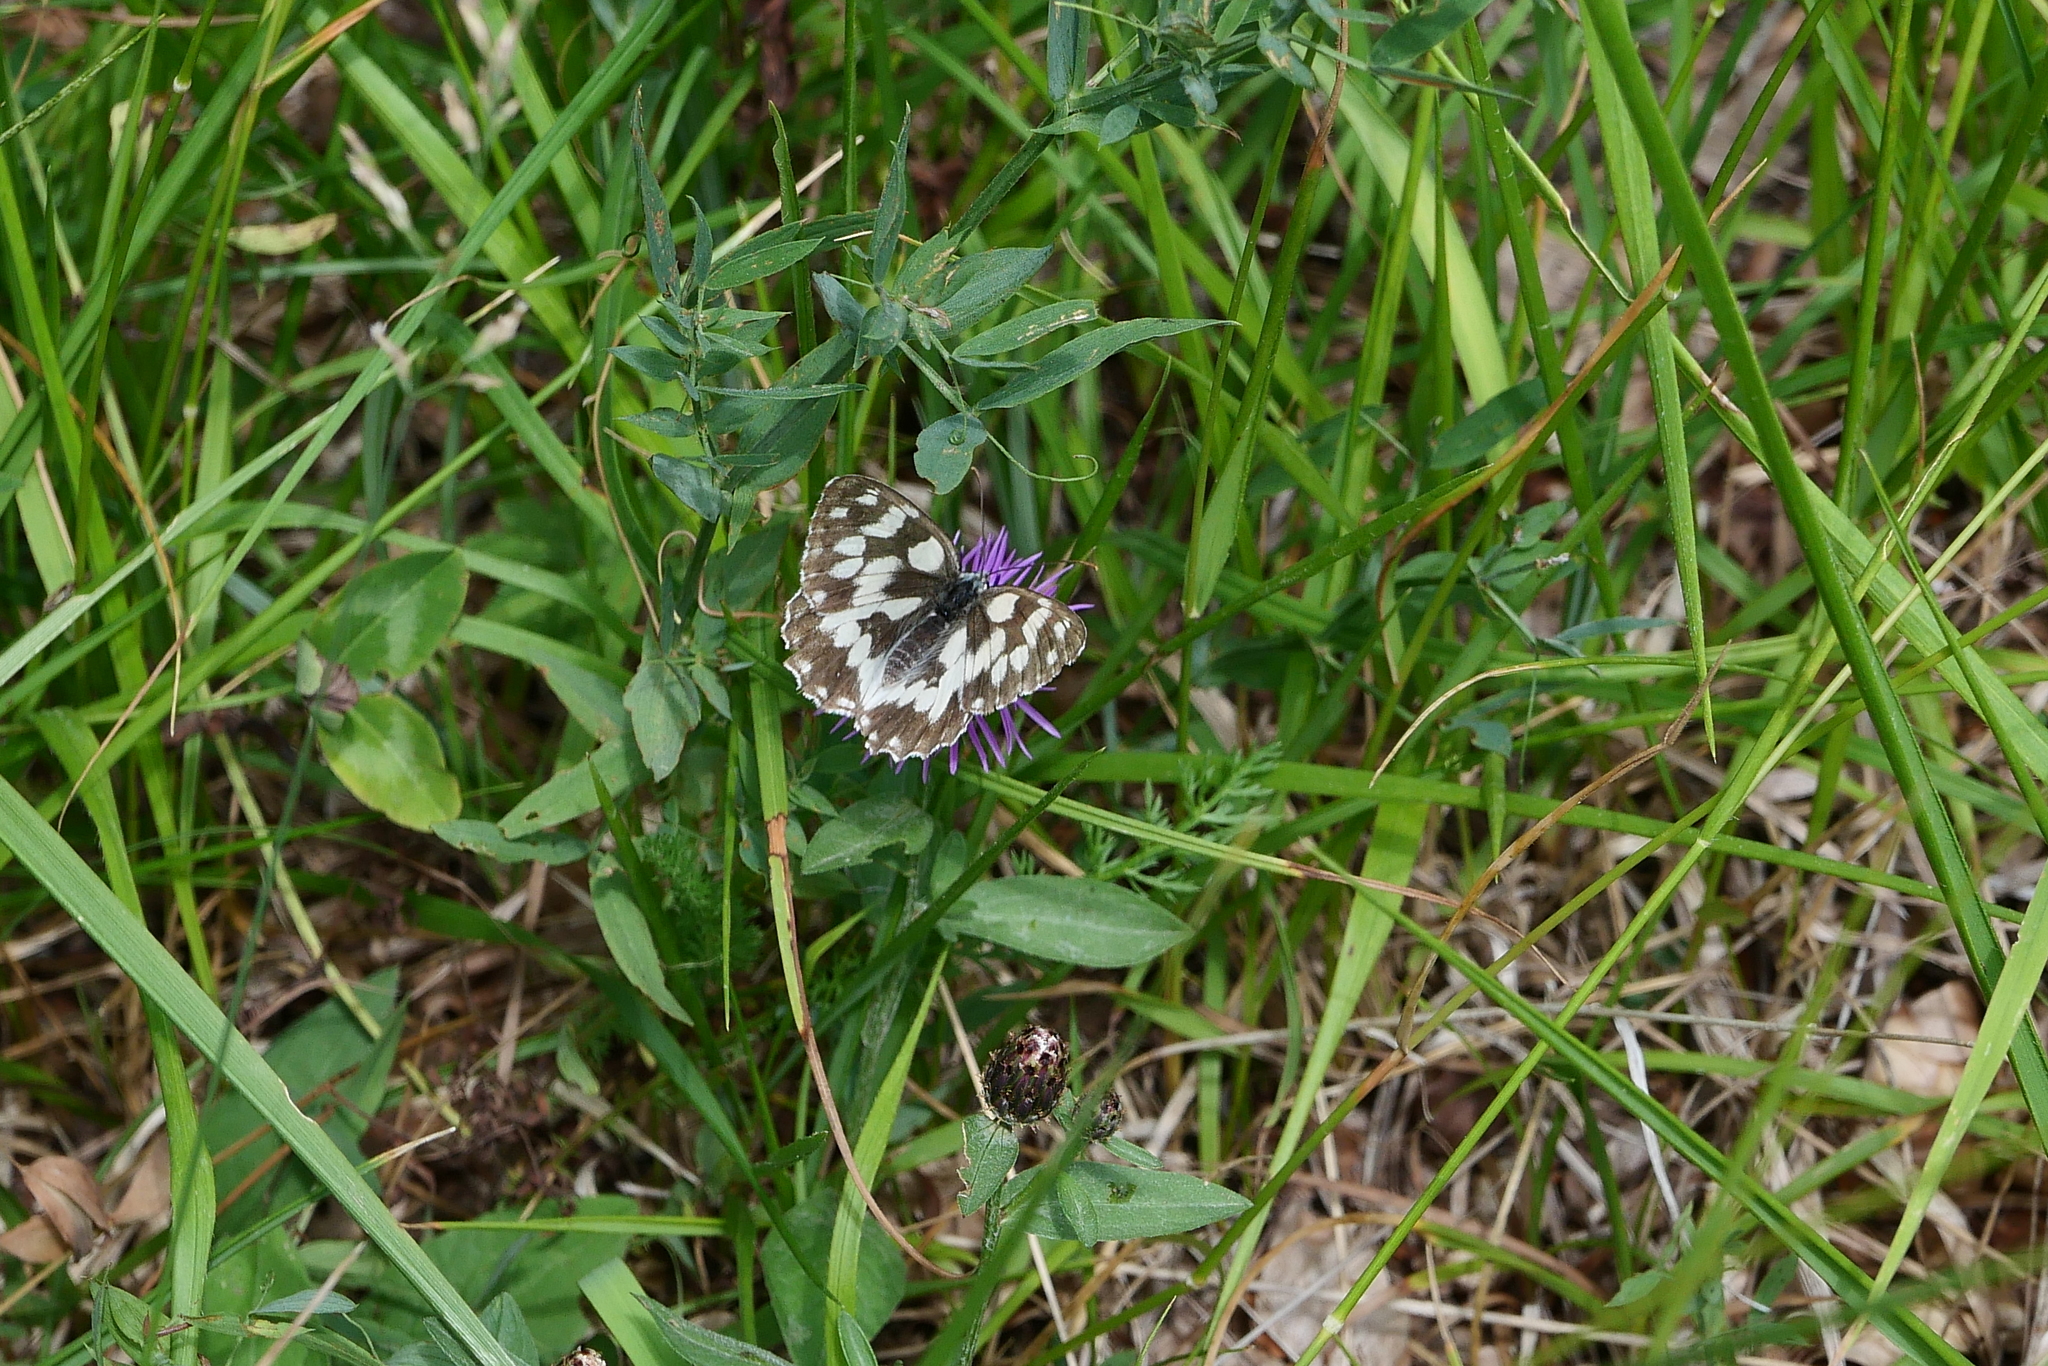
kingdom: Animalia
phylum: Arthropoda
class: Insecta
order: Lepidoptera
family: Nymphalidae
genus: Melanargia
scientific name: Melanargia galathea
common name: Marbled white
